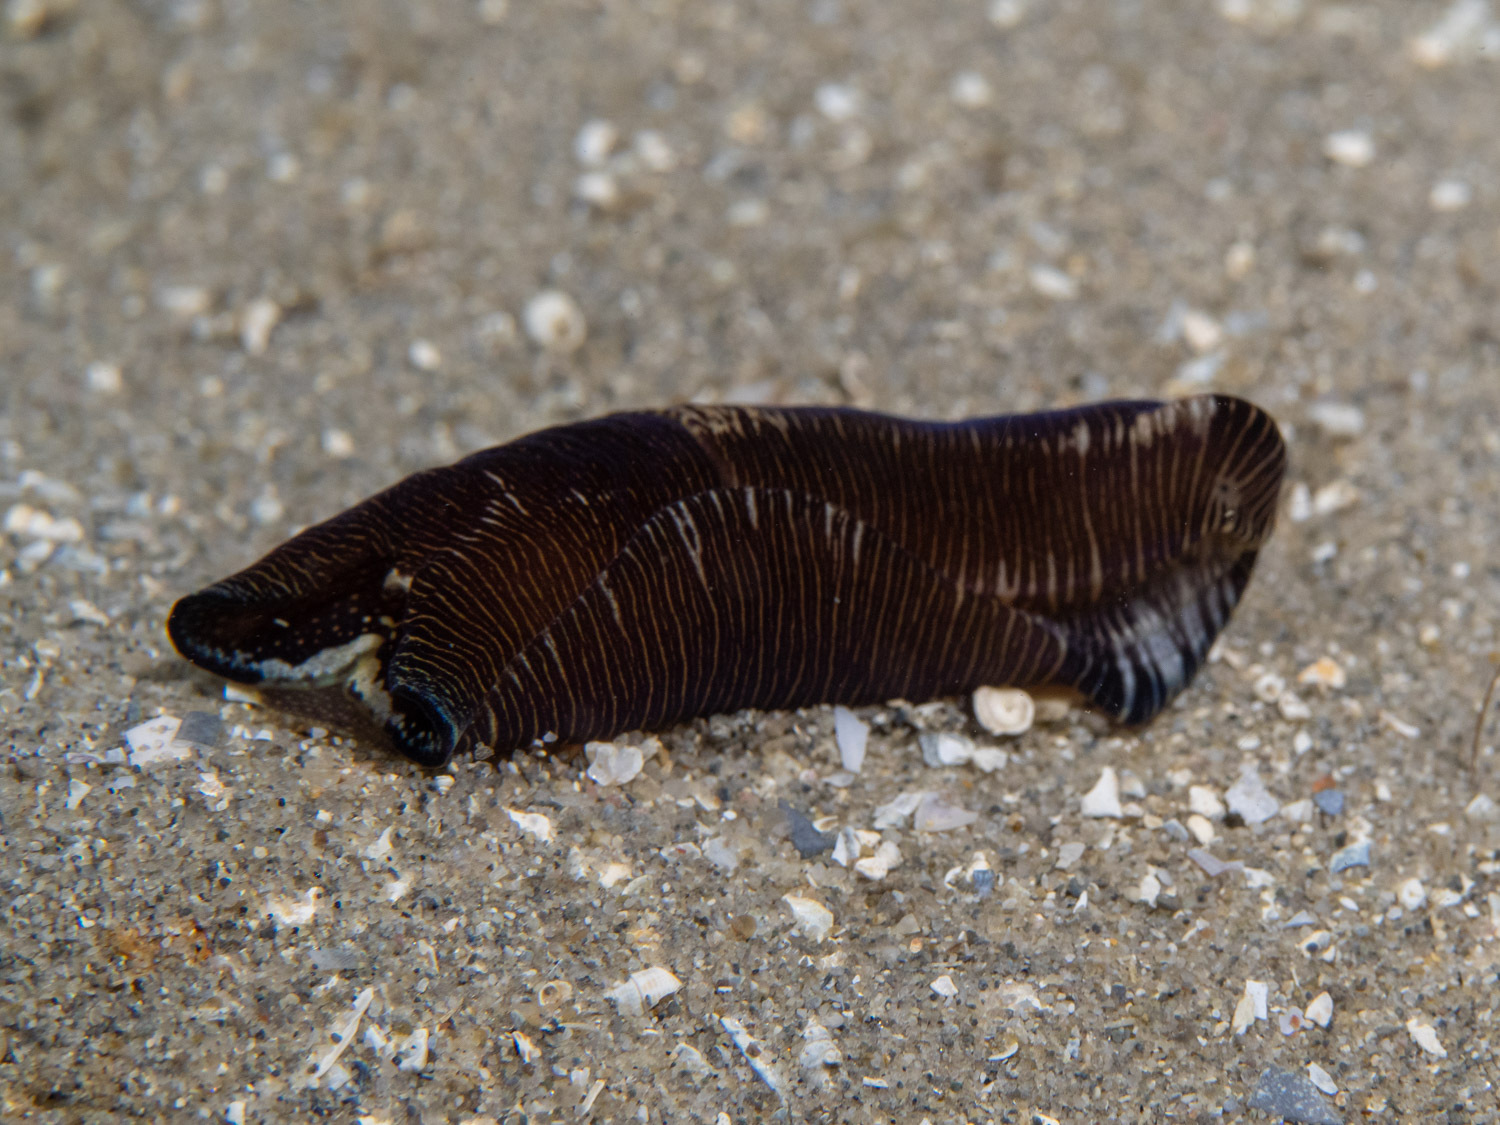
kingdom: Animalia
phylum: Mollusca
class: Gastropoda
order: Cephalaspidea
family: Aglajidae
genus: Tubulophilinopsis
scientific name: Tubulophilinopsis lineolata
